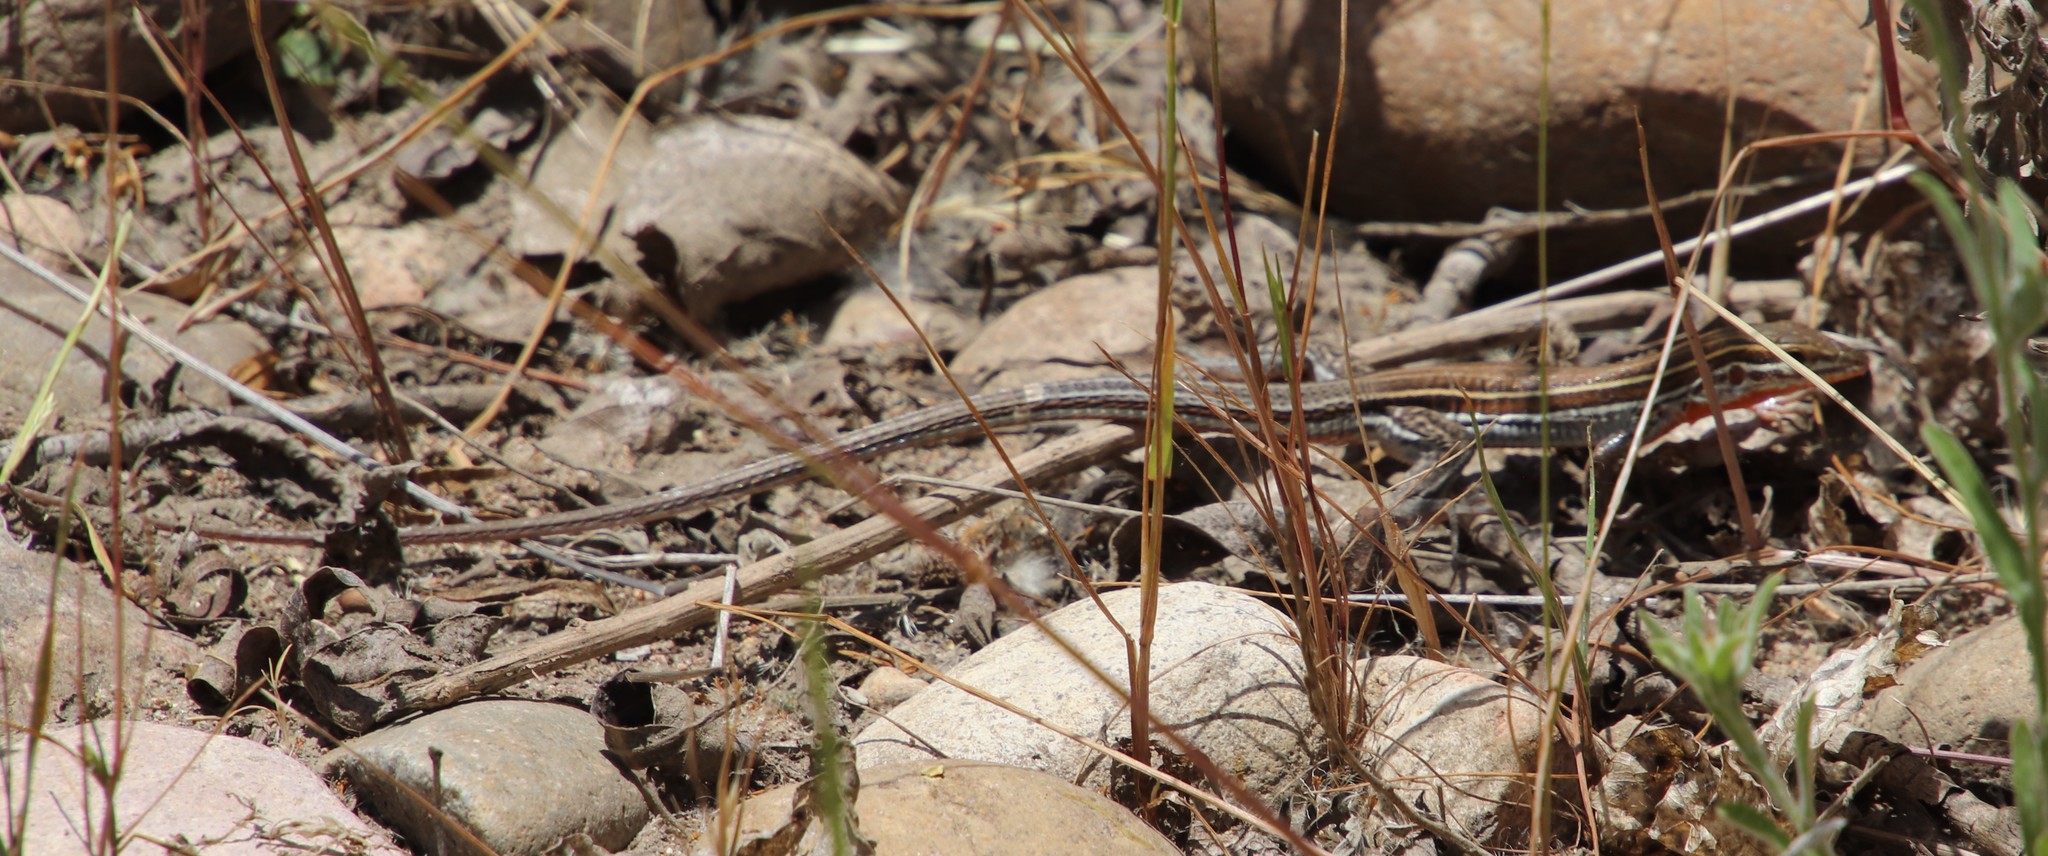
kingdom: Animalia
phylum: Chordata
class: Squamata
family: Teiidae
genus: Aspidoscelis
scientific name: Aspidoscelis hyperythrus
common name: Orange-throated race-runner
